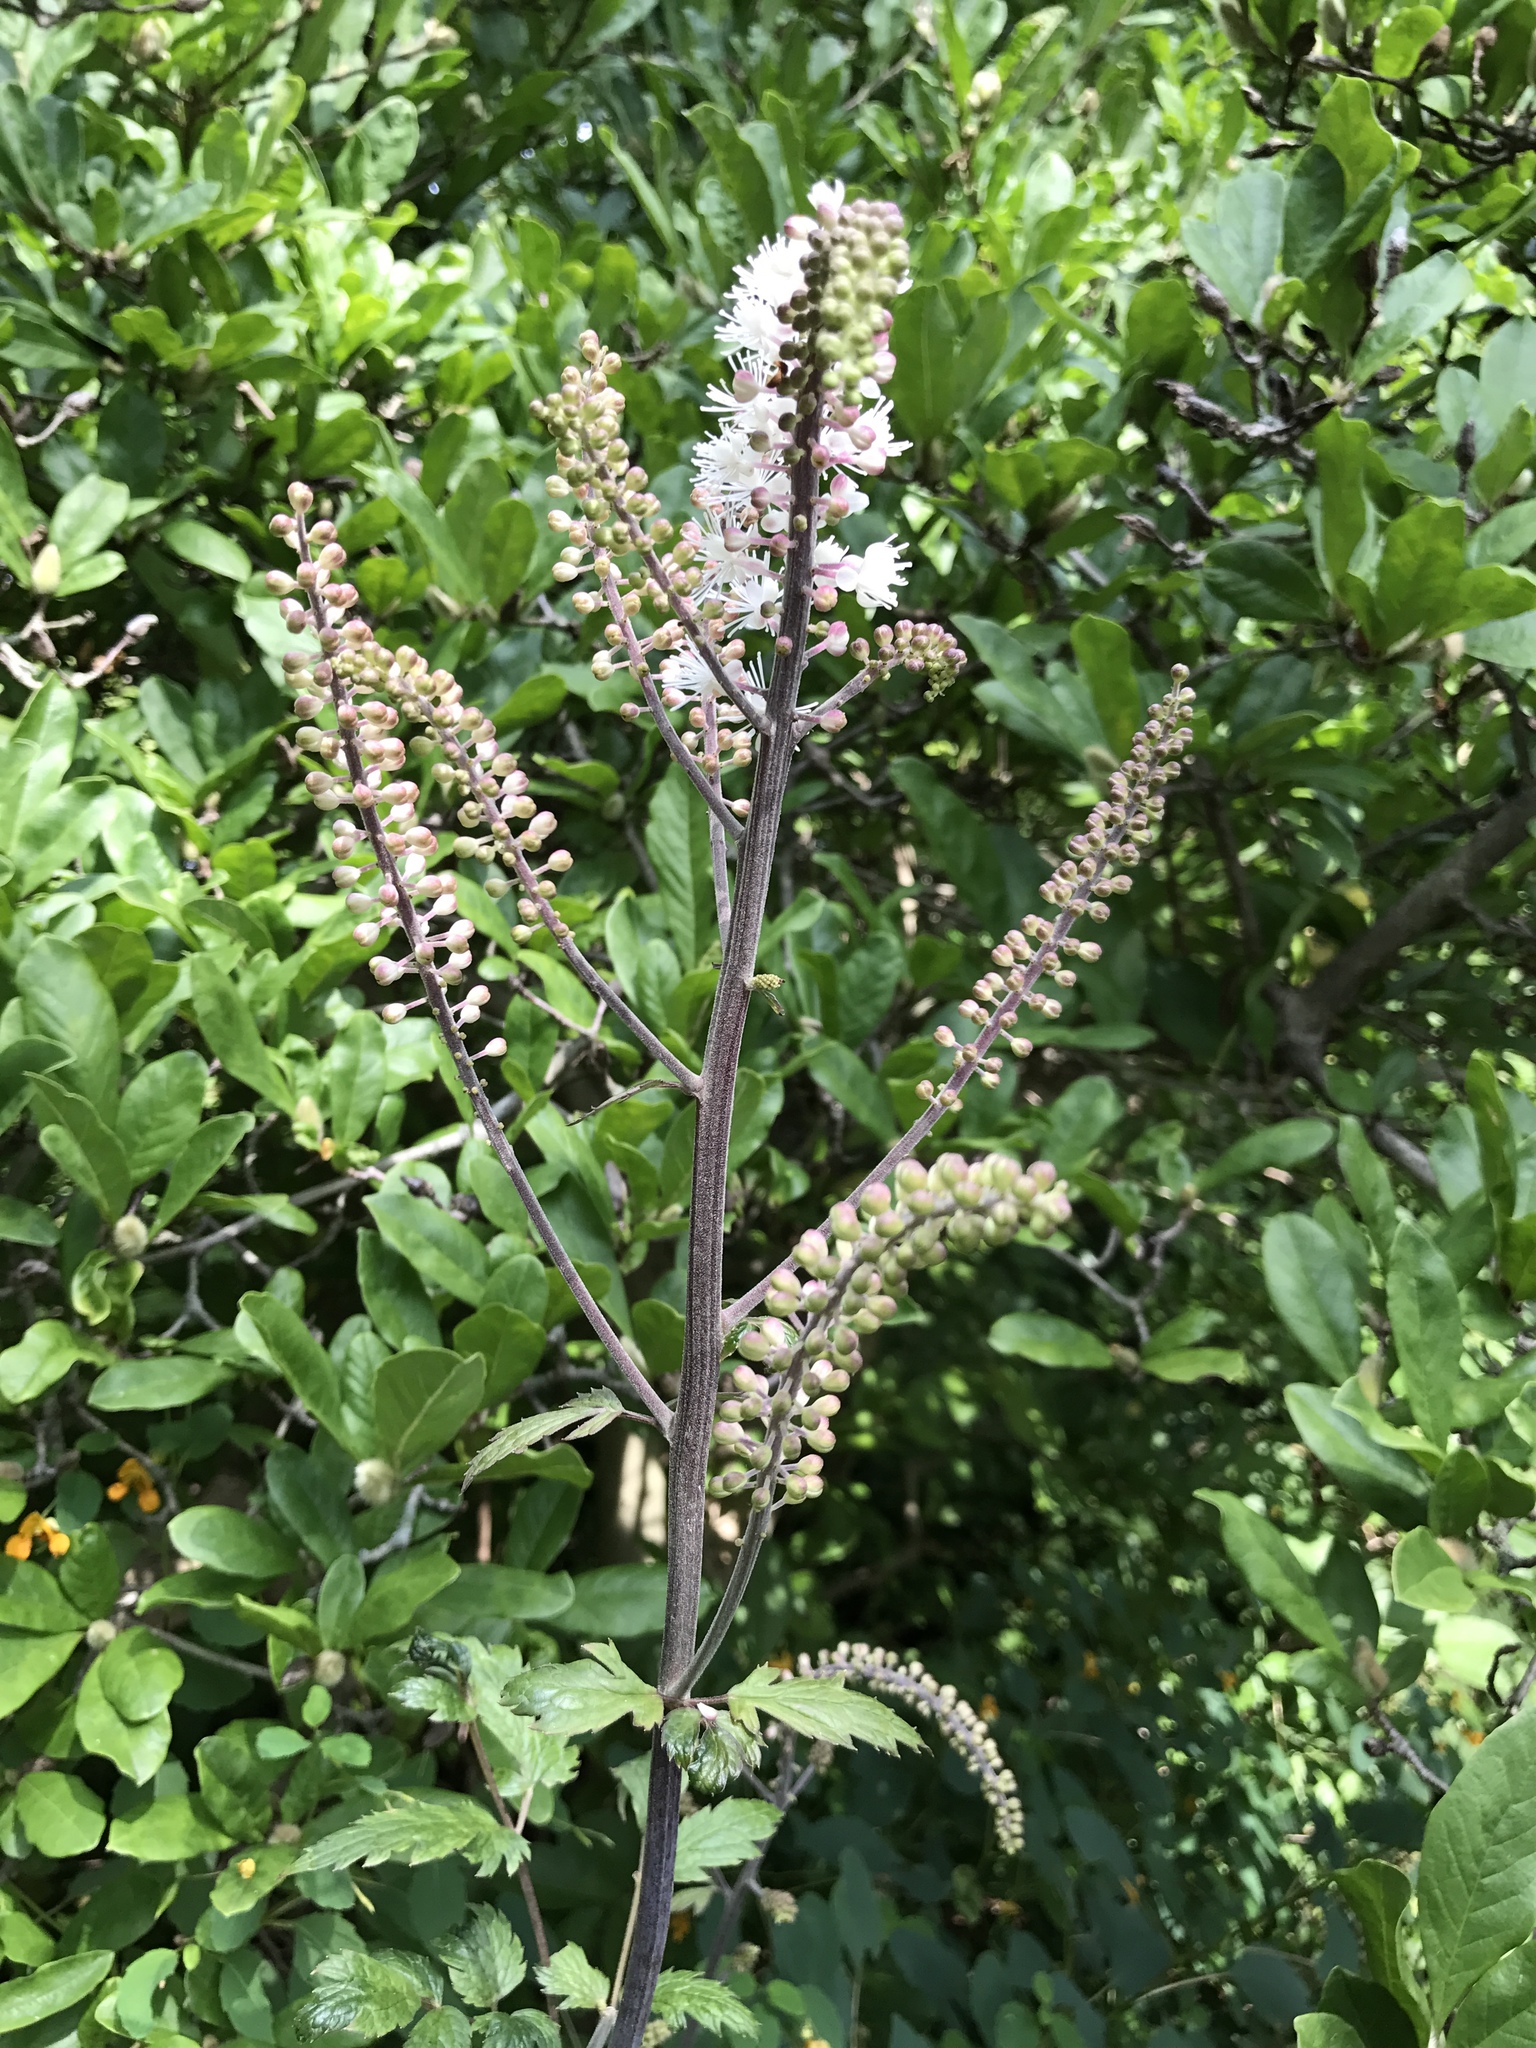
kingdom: Plantae
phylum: Tracheophyta
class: Magnoliopsida
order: Ranunculales
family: Ranunculaceae
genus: Actaea
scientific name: Actaea racemosa
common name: Black cohosh
